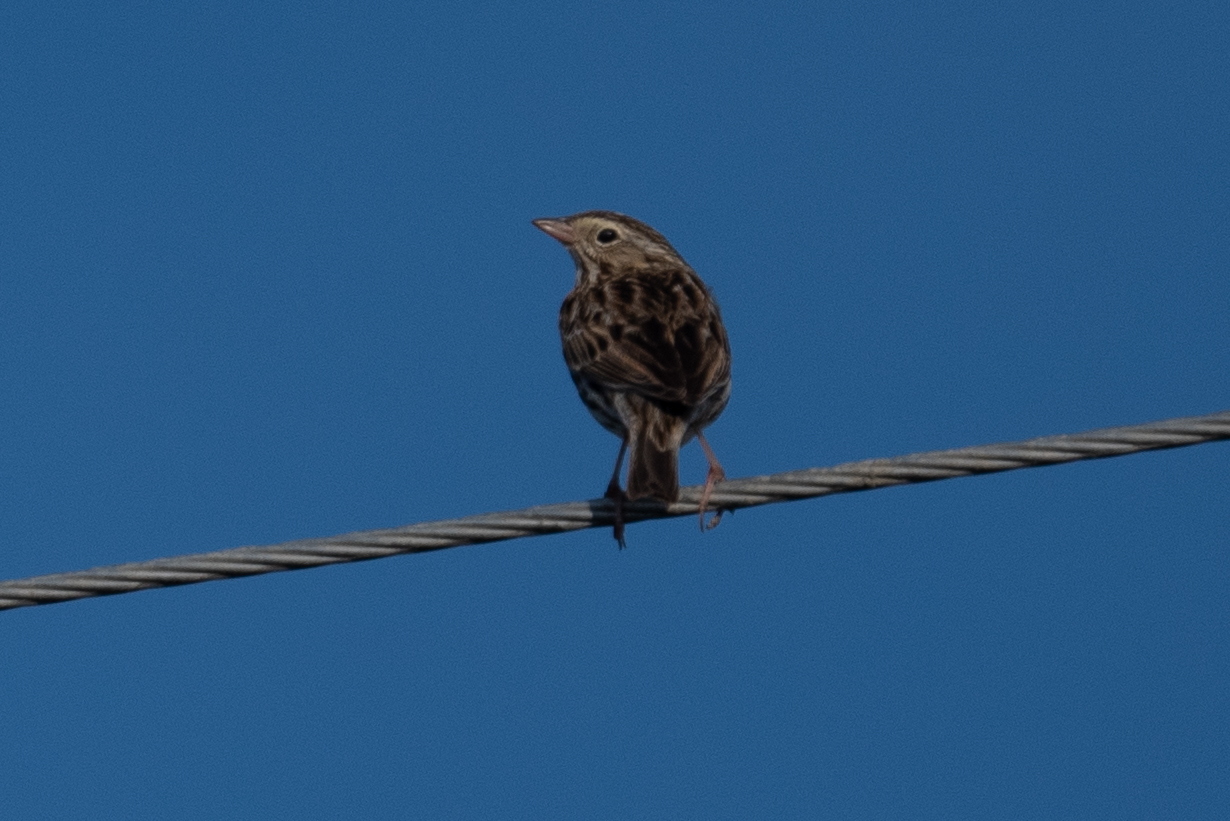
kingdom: Animalia
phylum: Chordata
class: Aves
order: Passeriformes
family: Passerellidae
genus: Passerculus
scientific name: Passerculus sandwichensis
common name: Savannah sparrow
